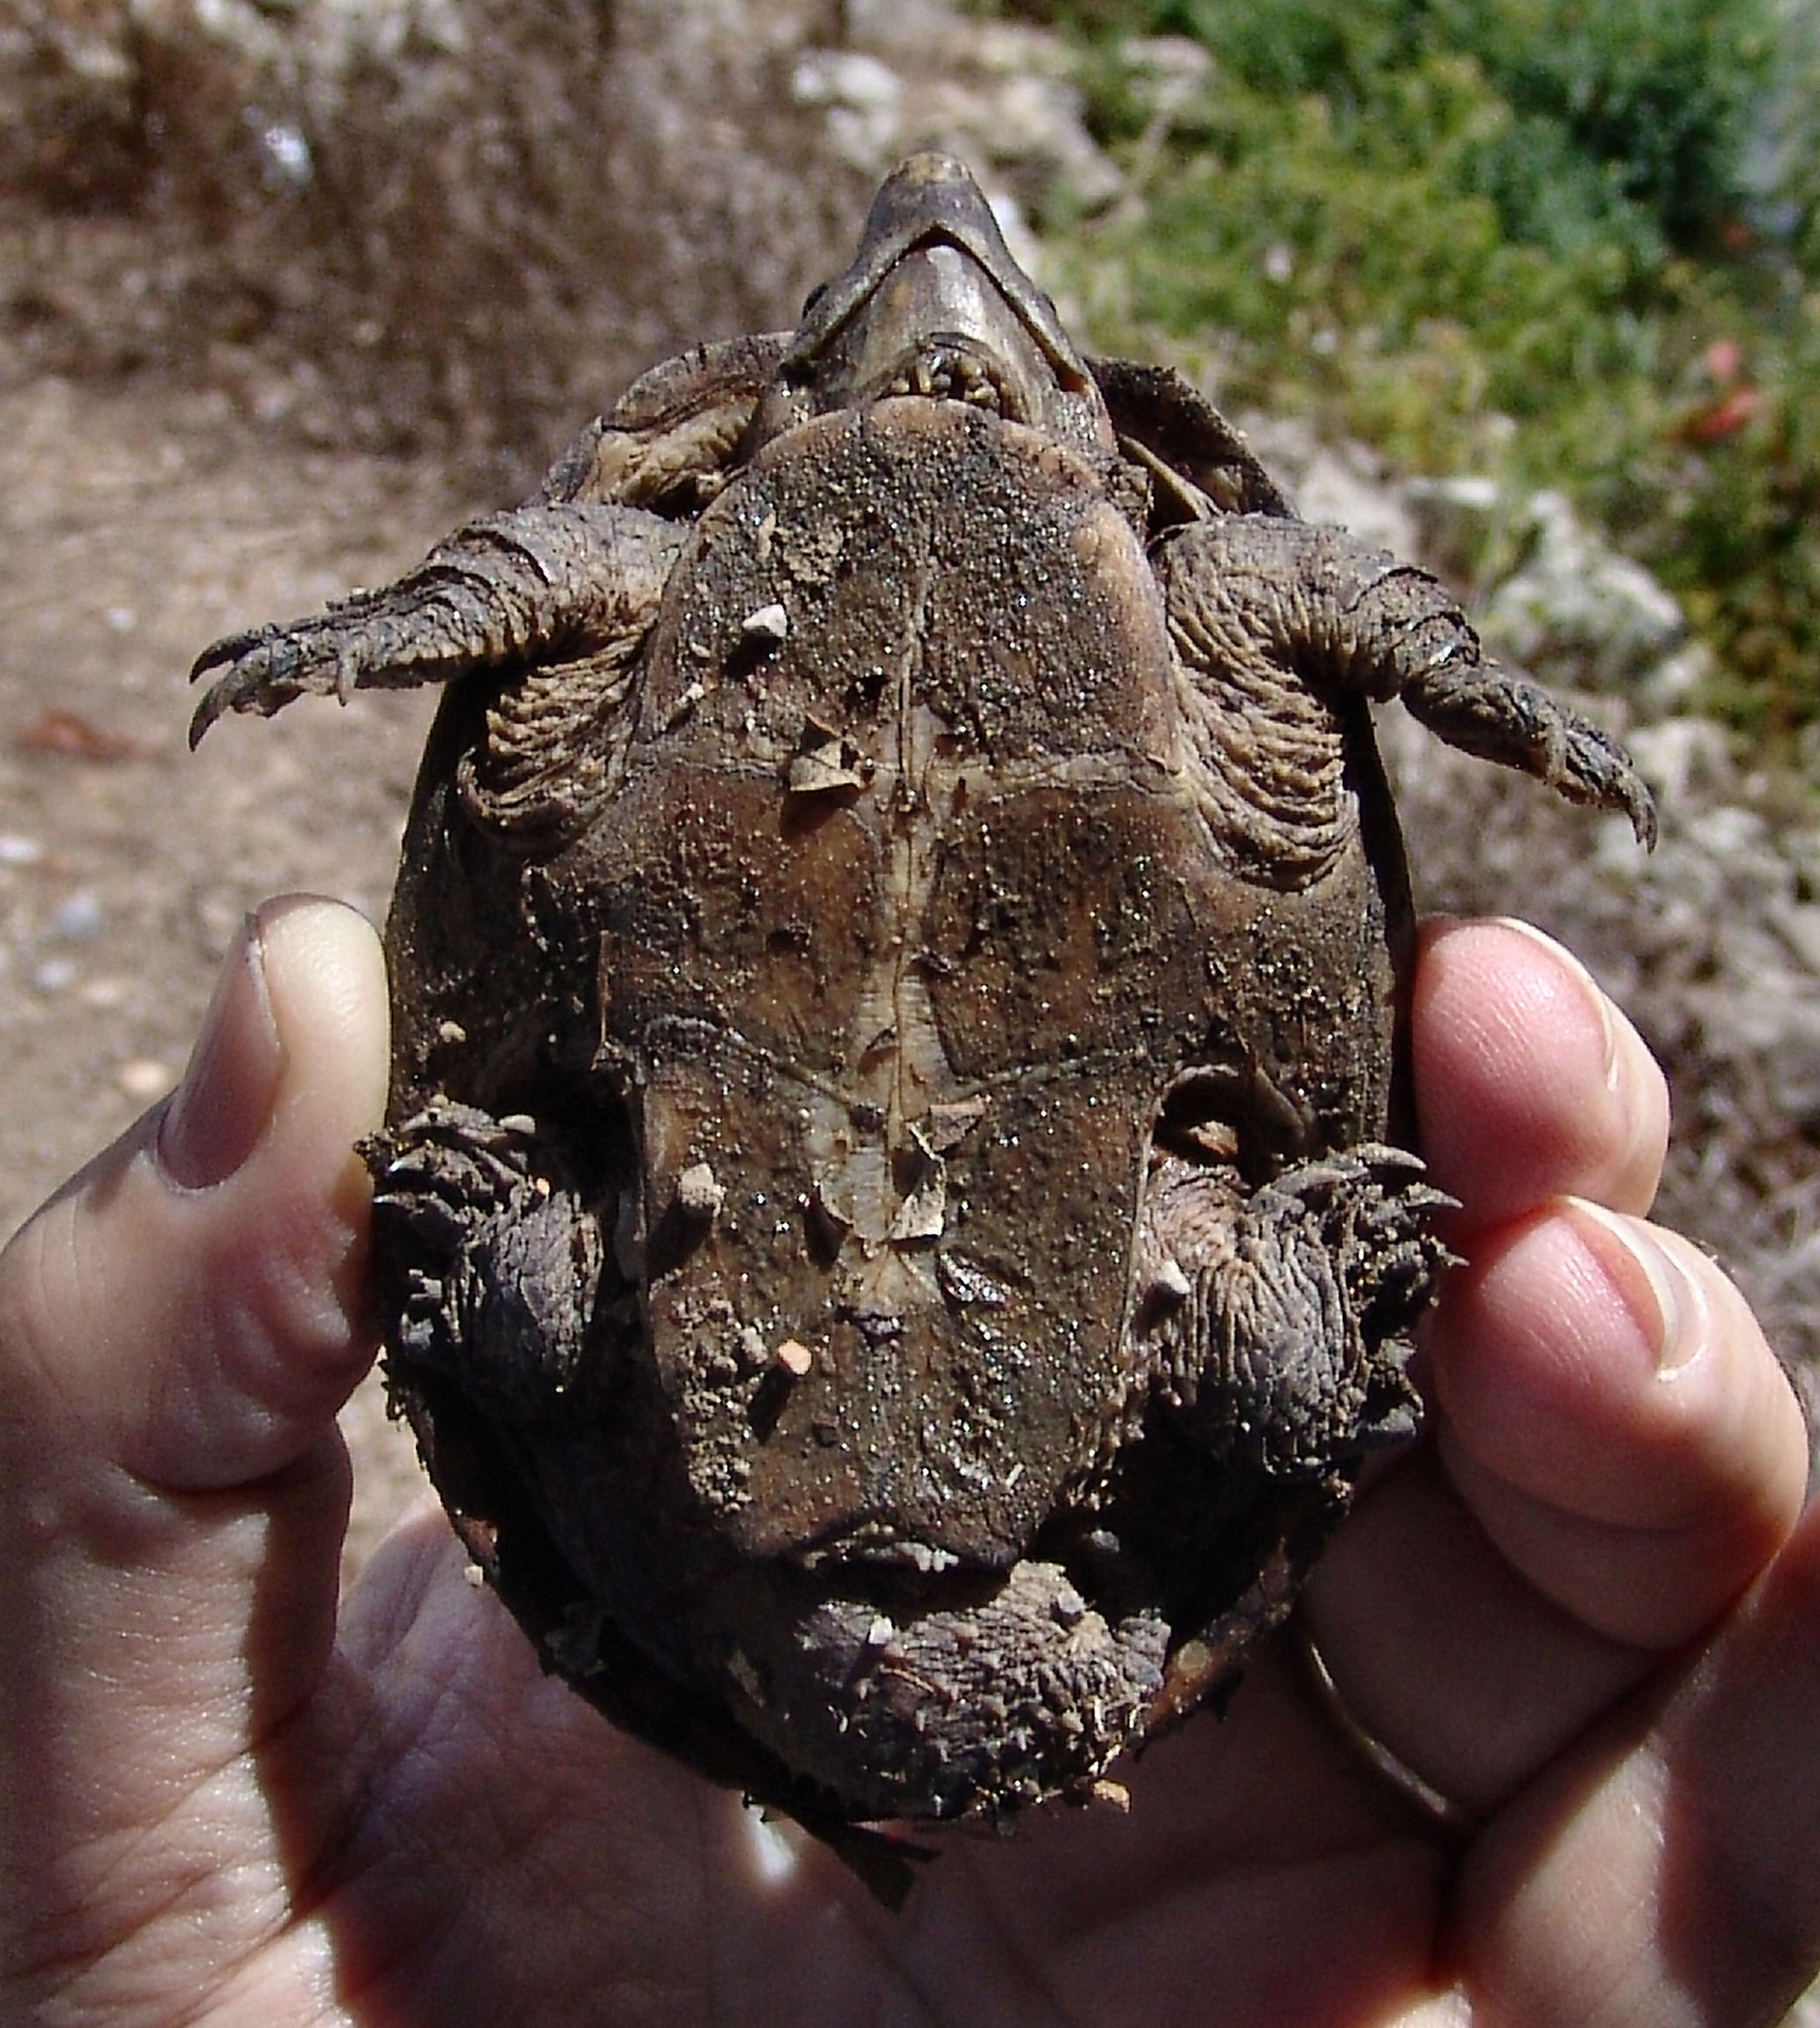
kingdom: Animalia
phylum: Chordata
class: Testudines
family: Kinosternidae
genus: Sternotherus
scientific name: Sternotherus odoratus
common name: Common musk turtle
